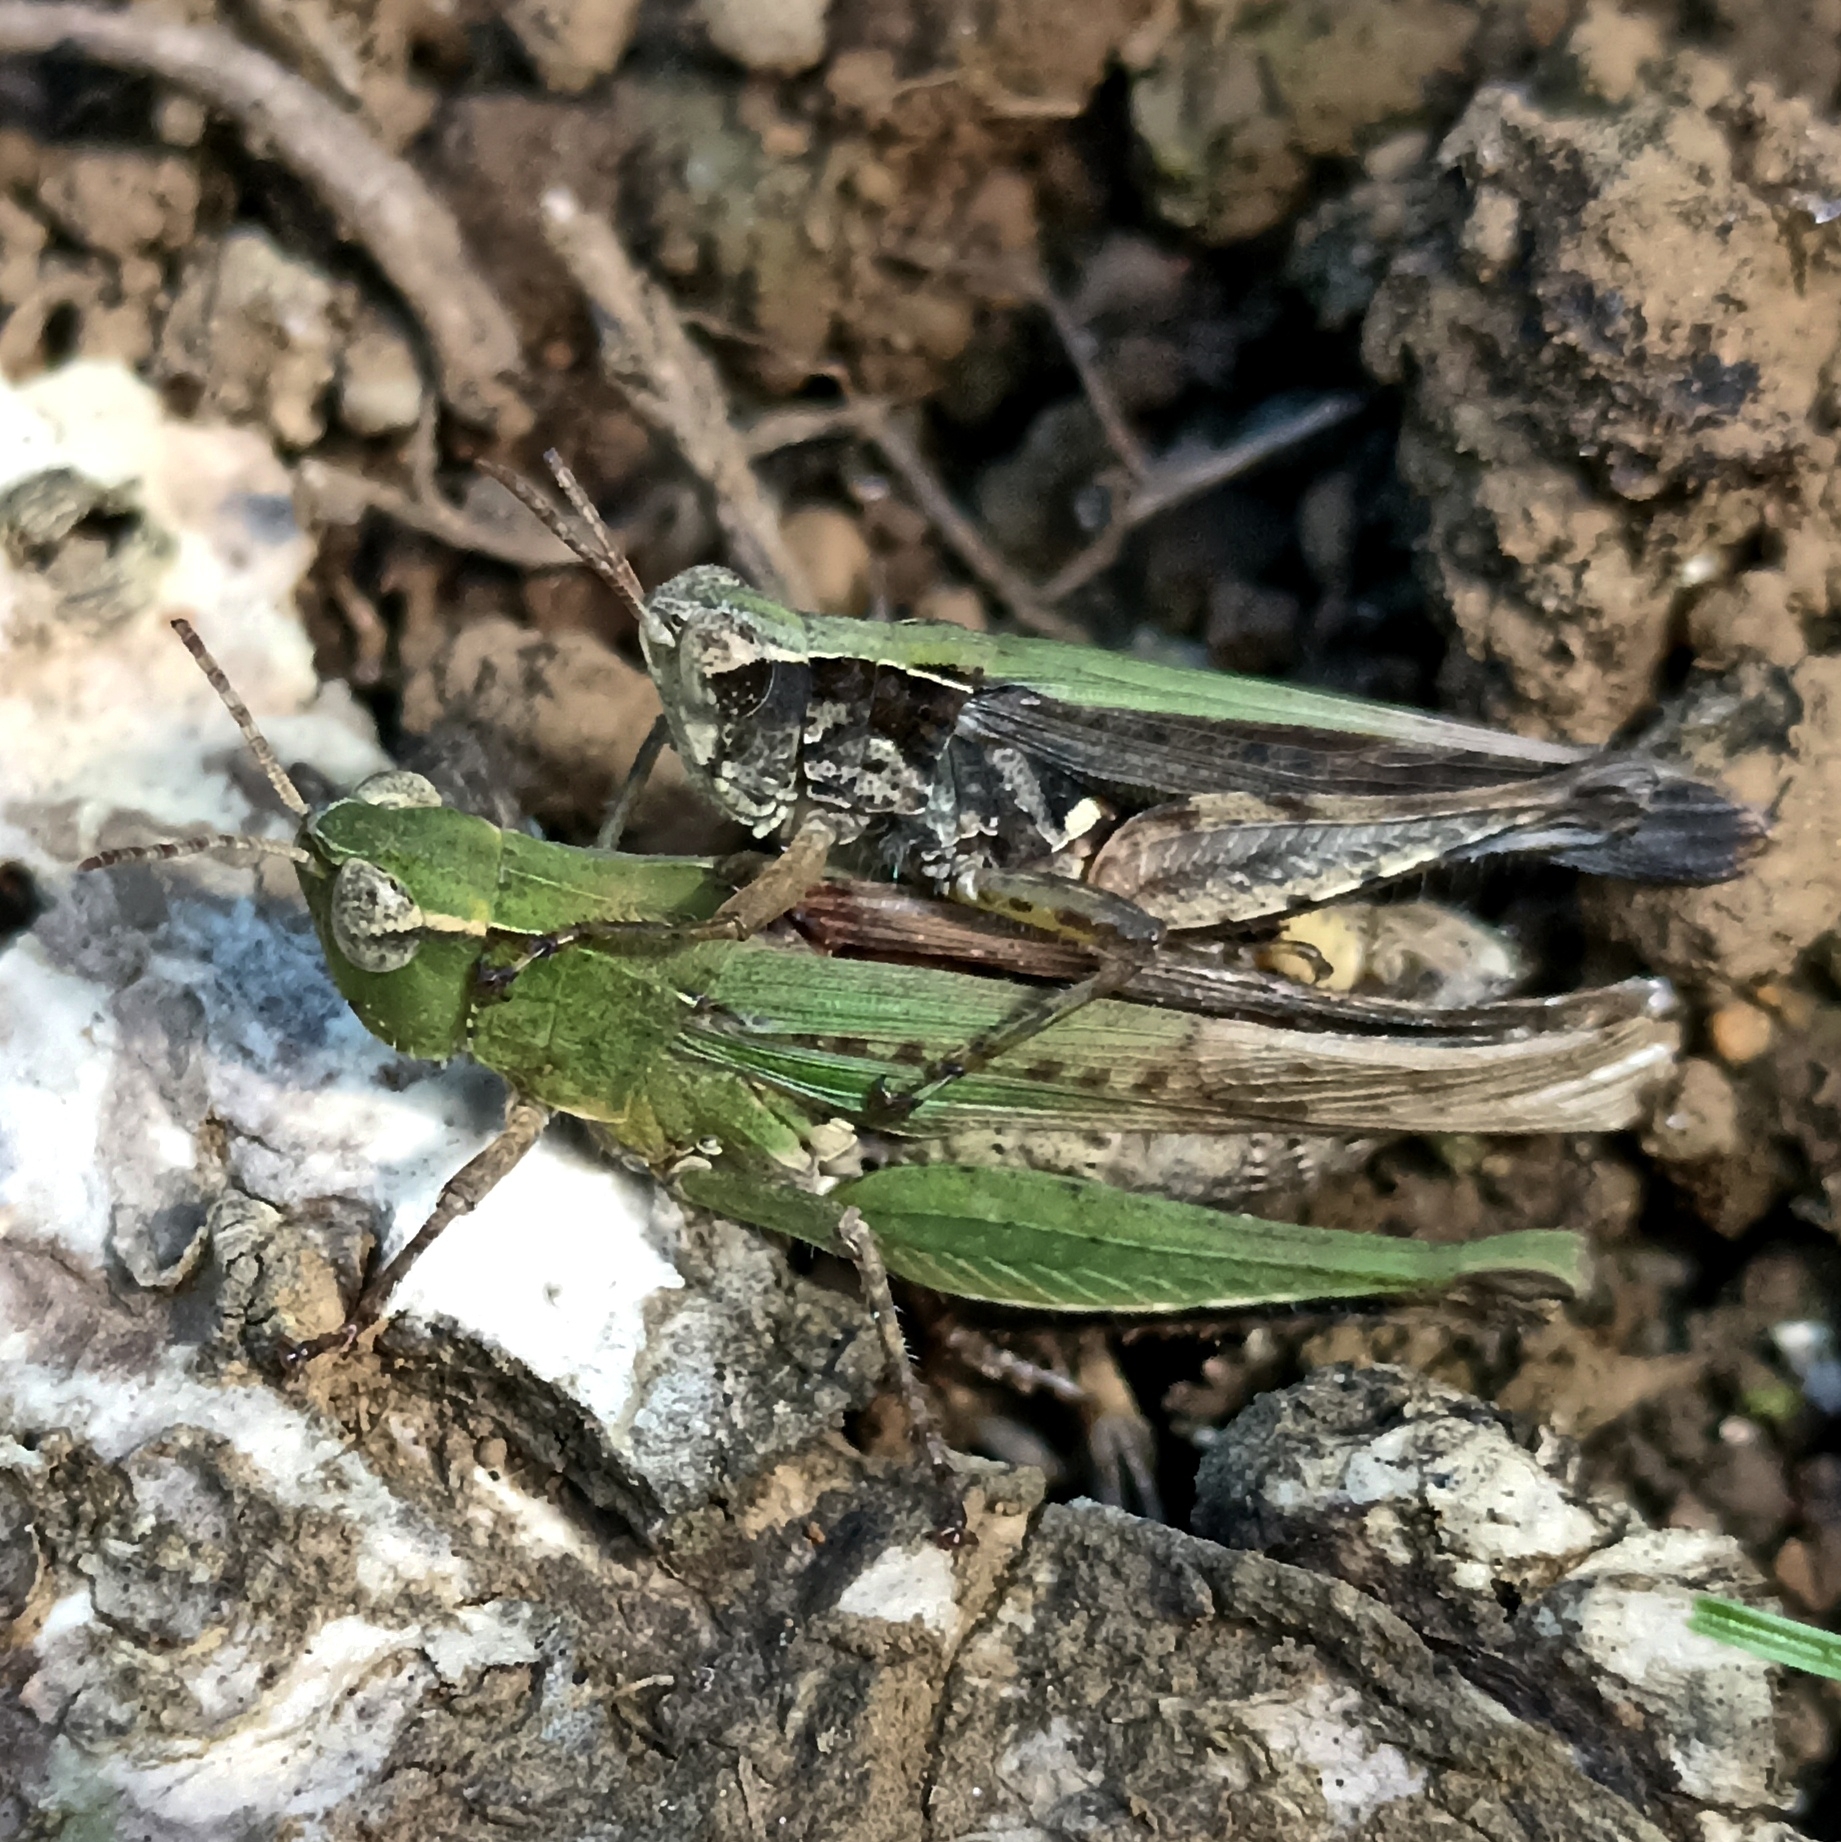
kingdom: Animalia
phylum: Arthropoda
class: Insecta
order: Orthoptera
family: Acrididae
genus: Orphulella
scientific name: Orphulella punctata
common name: Slant-faced grasshopper
